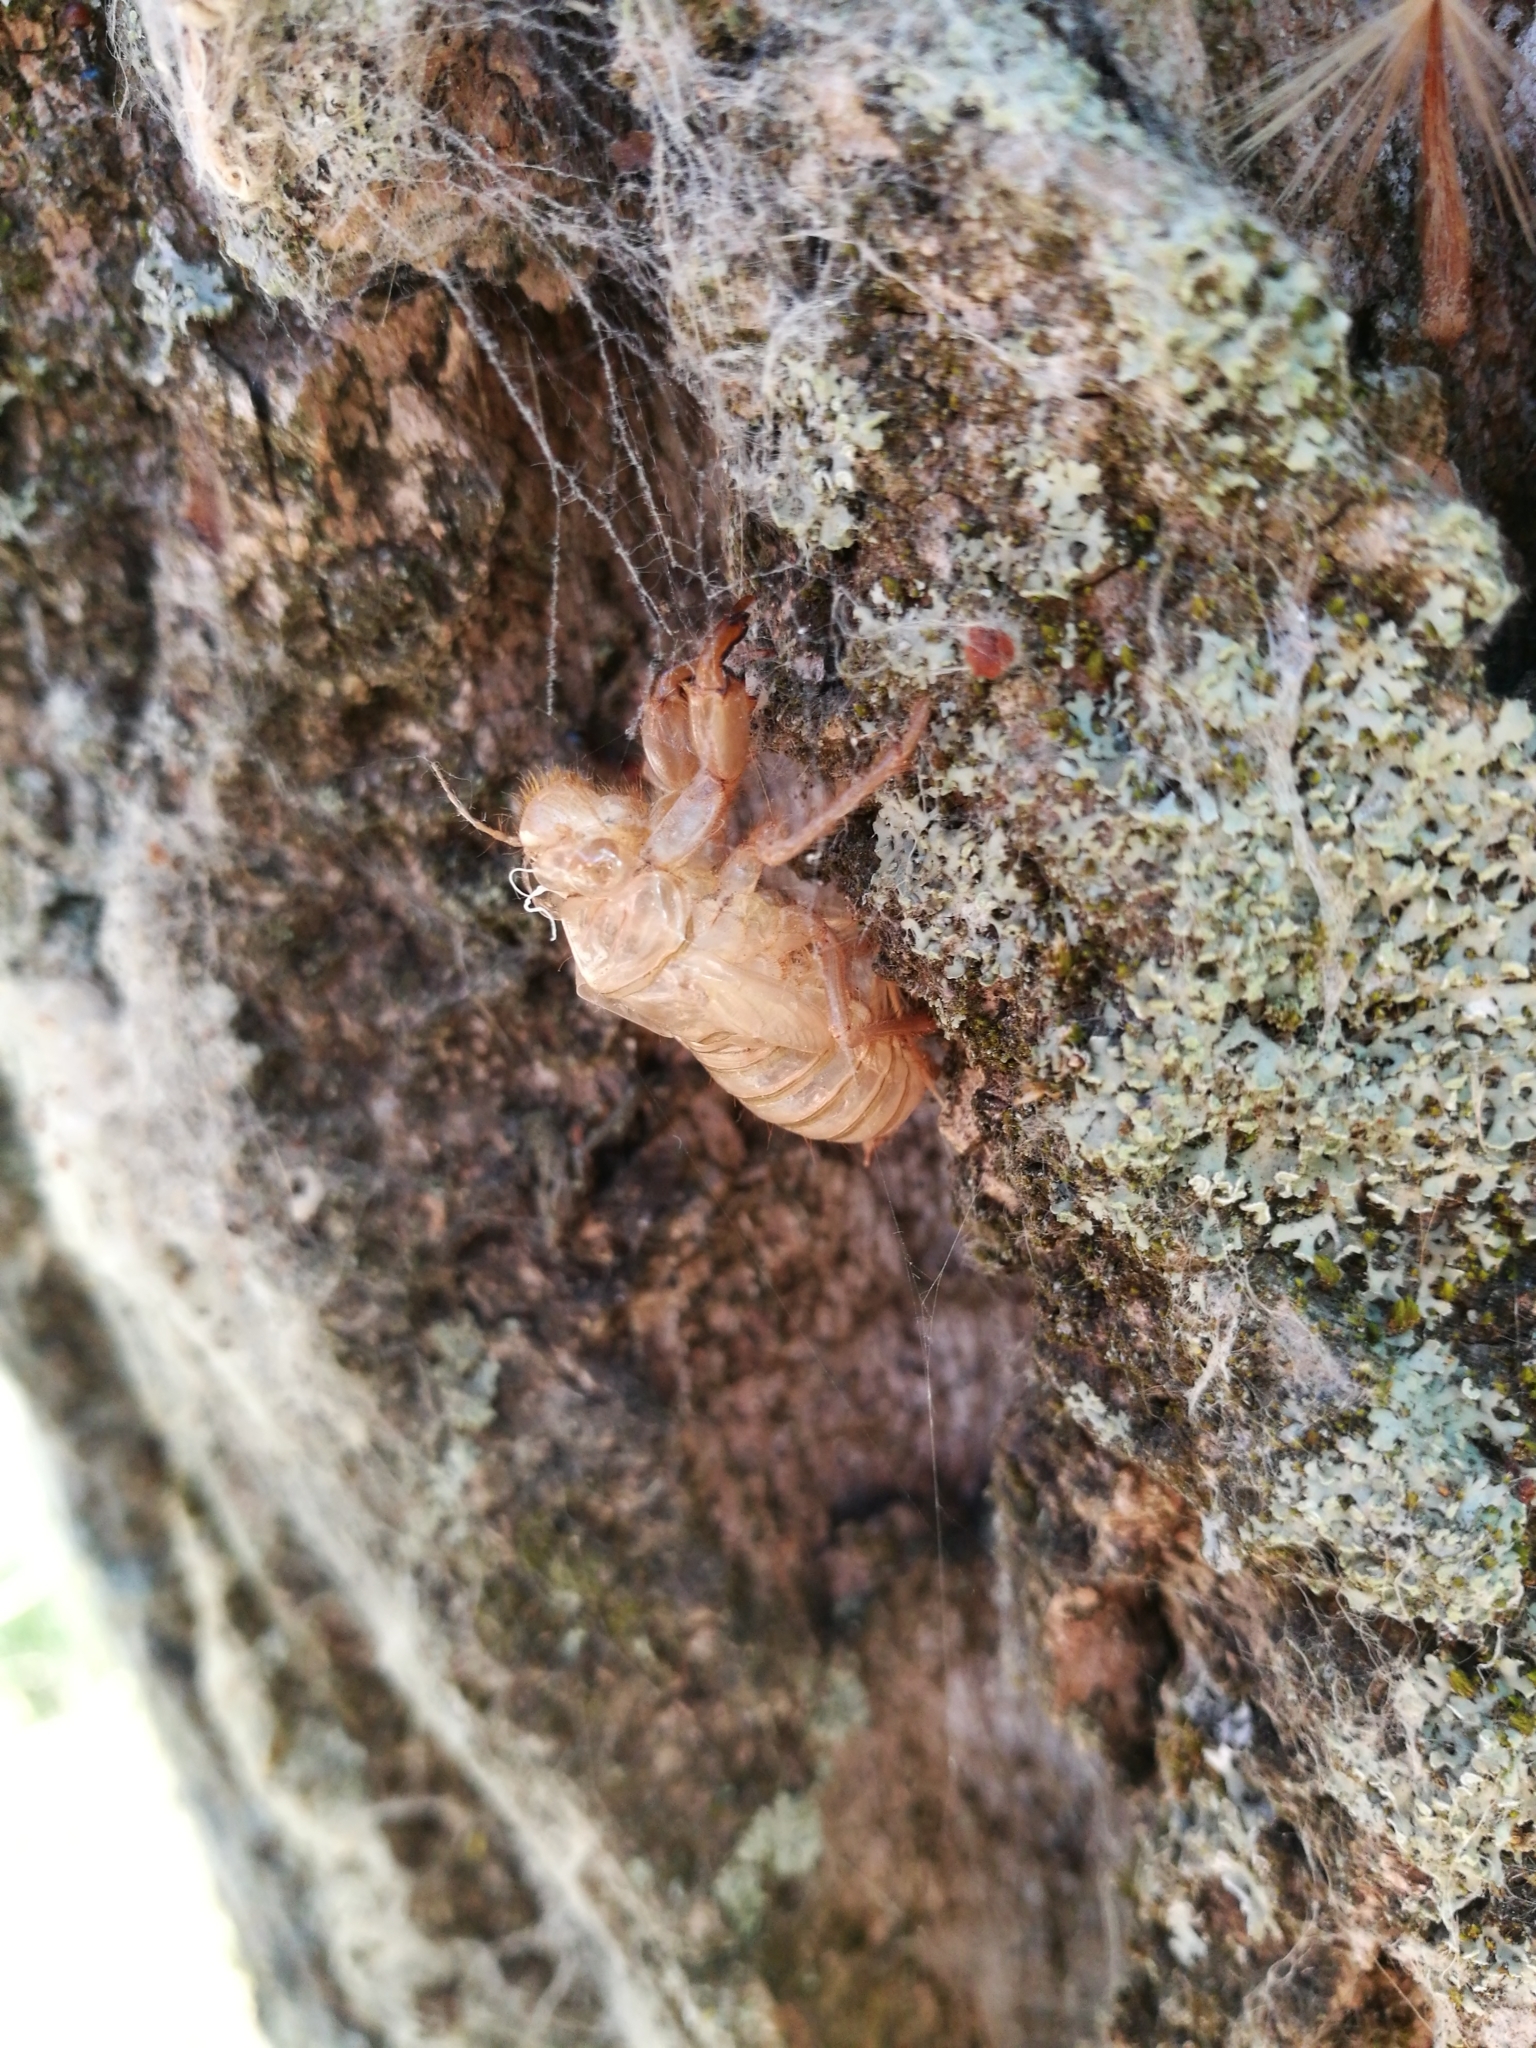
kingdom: Animalia
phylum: Arthropoda
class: Insecta
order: Hemiptera
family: Cicadidae
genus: Cicada
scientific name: Cicada orni
